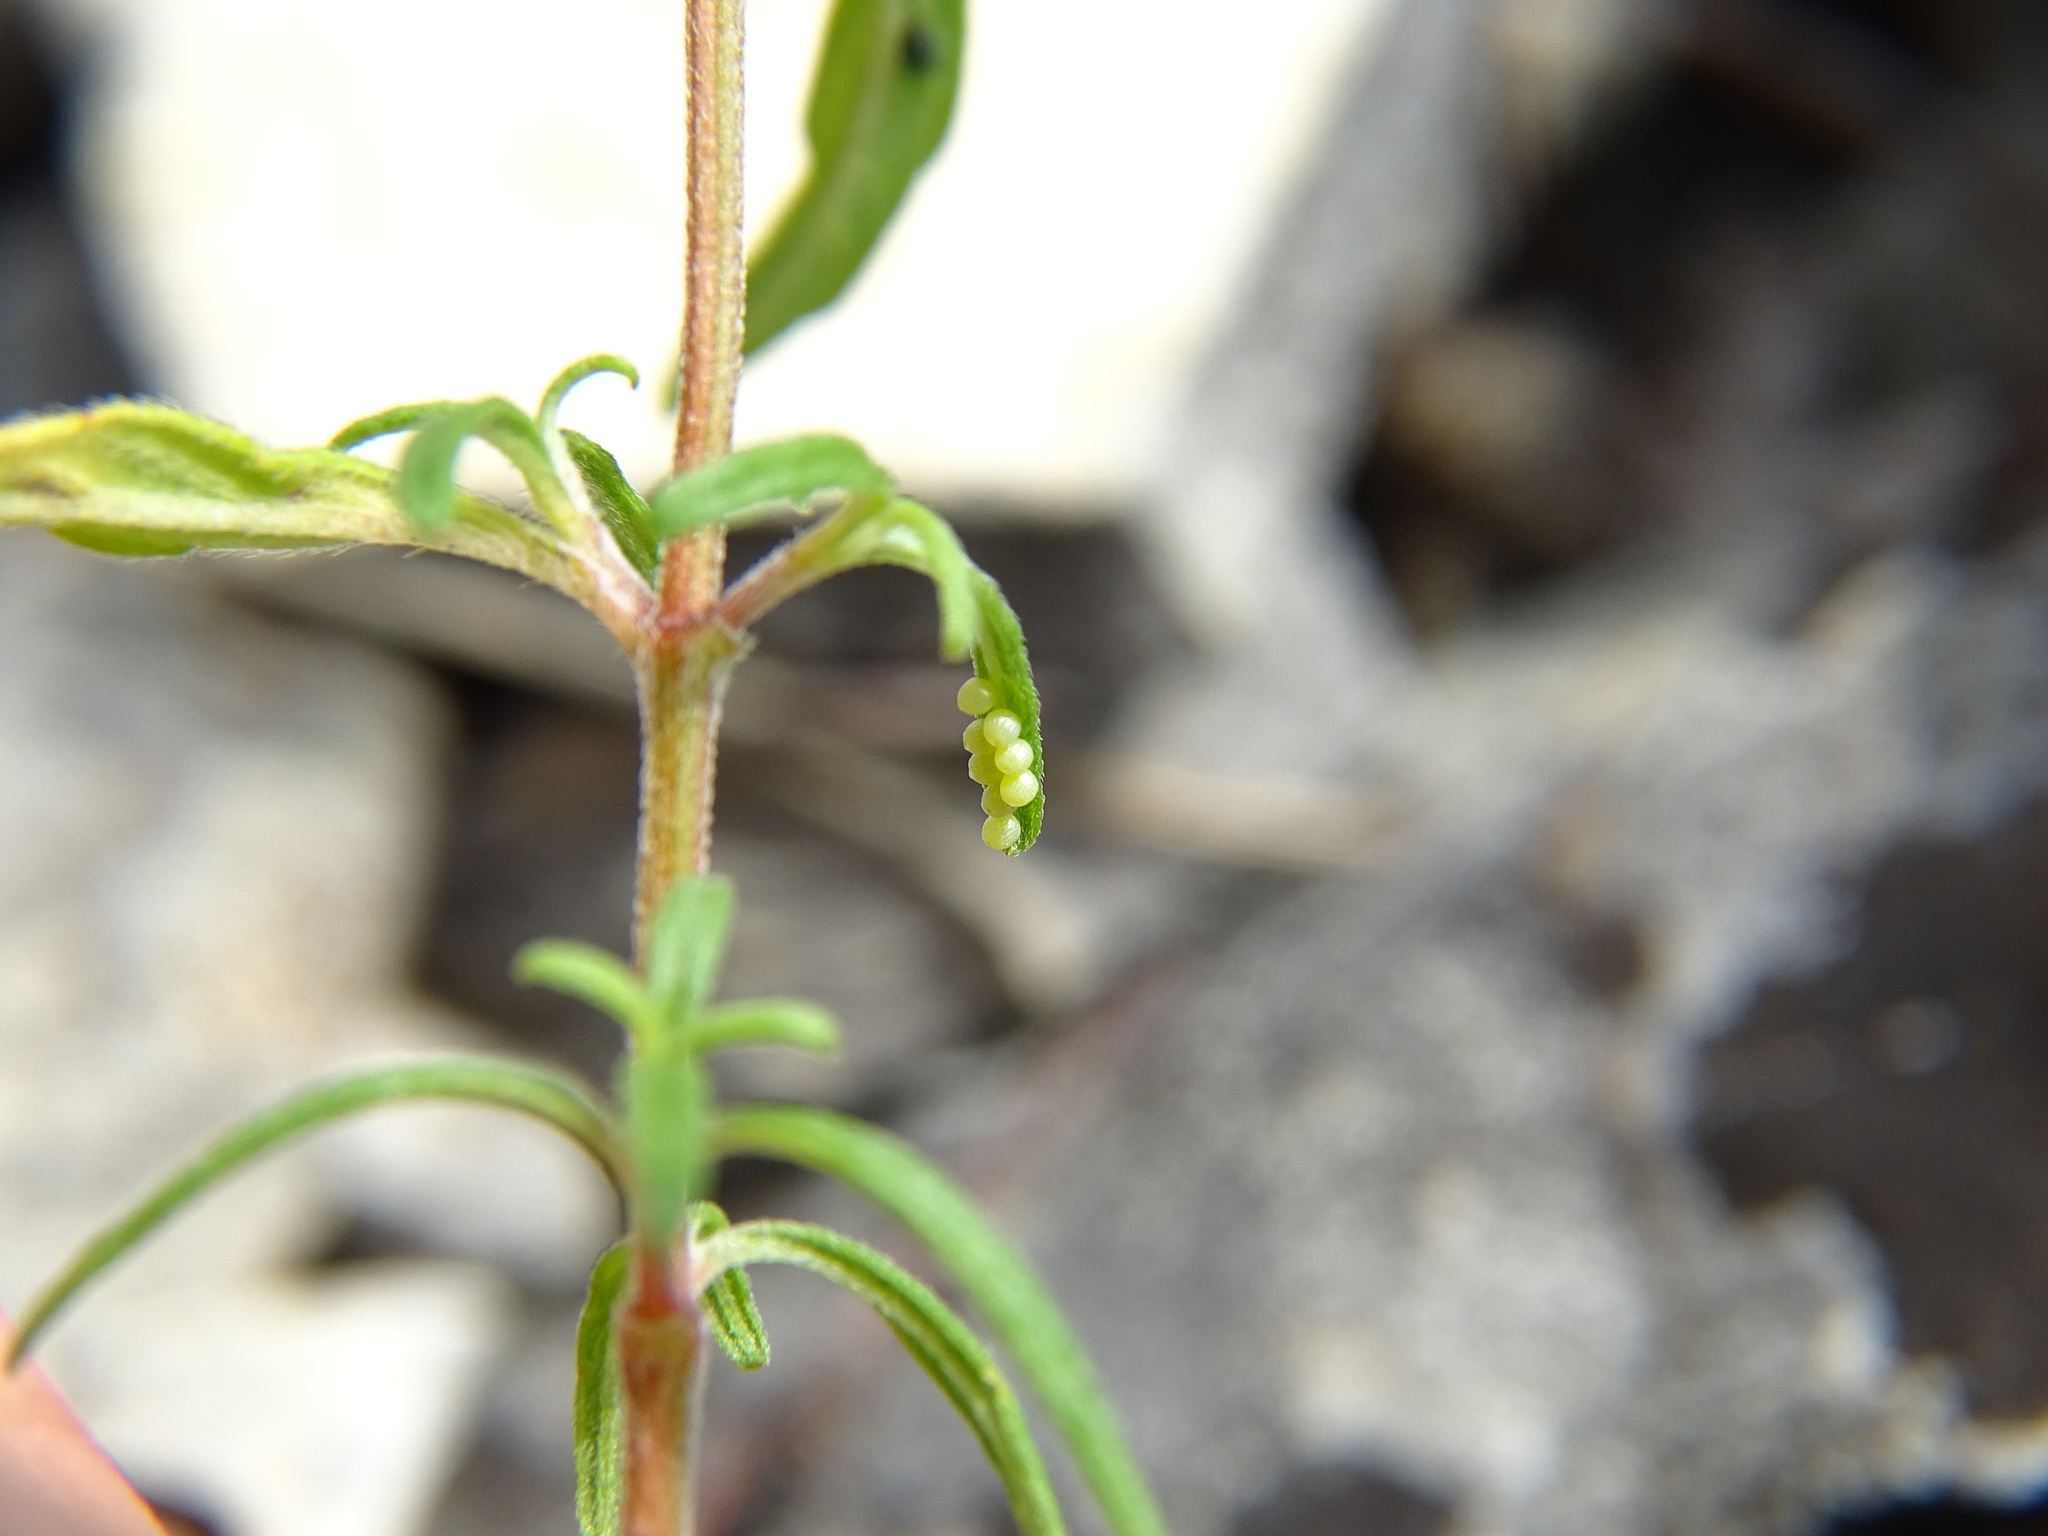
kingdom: Animalia
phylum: Arthropoda
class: Insecta
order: Lepidoptera
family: Nymphalidae
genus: Melitaea
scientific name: Melitaea didyma
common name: Spotted fritillary
